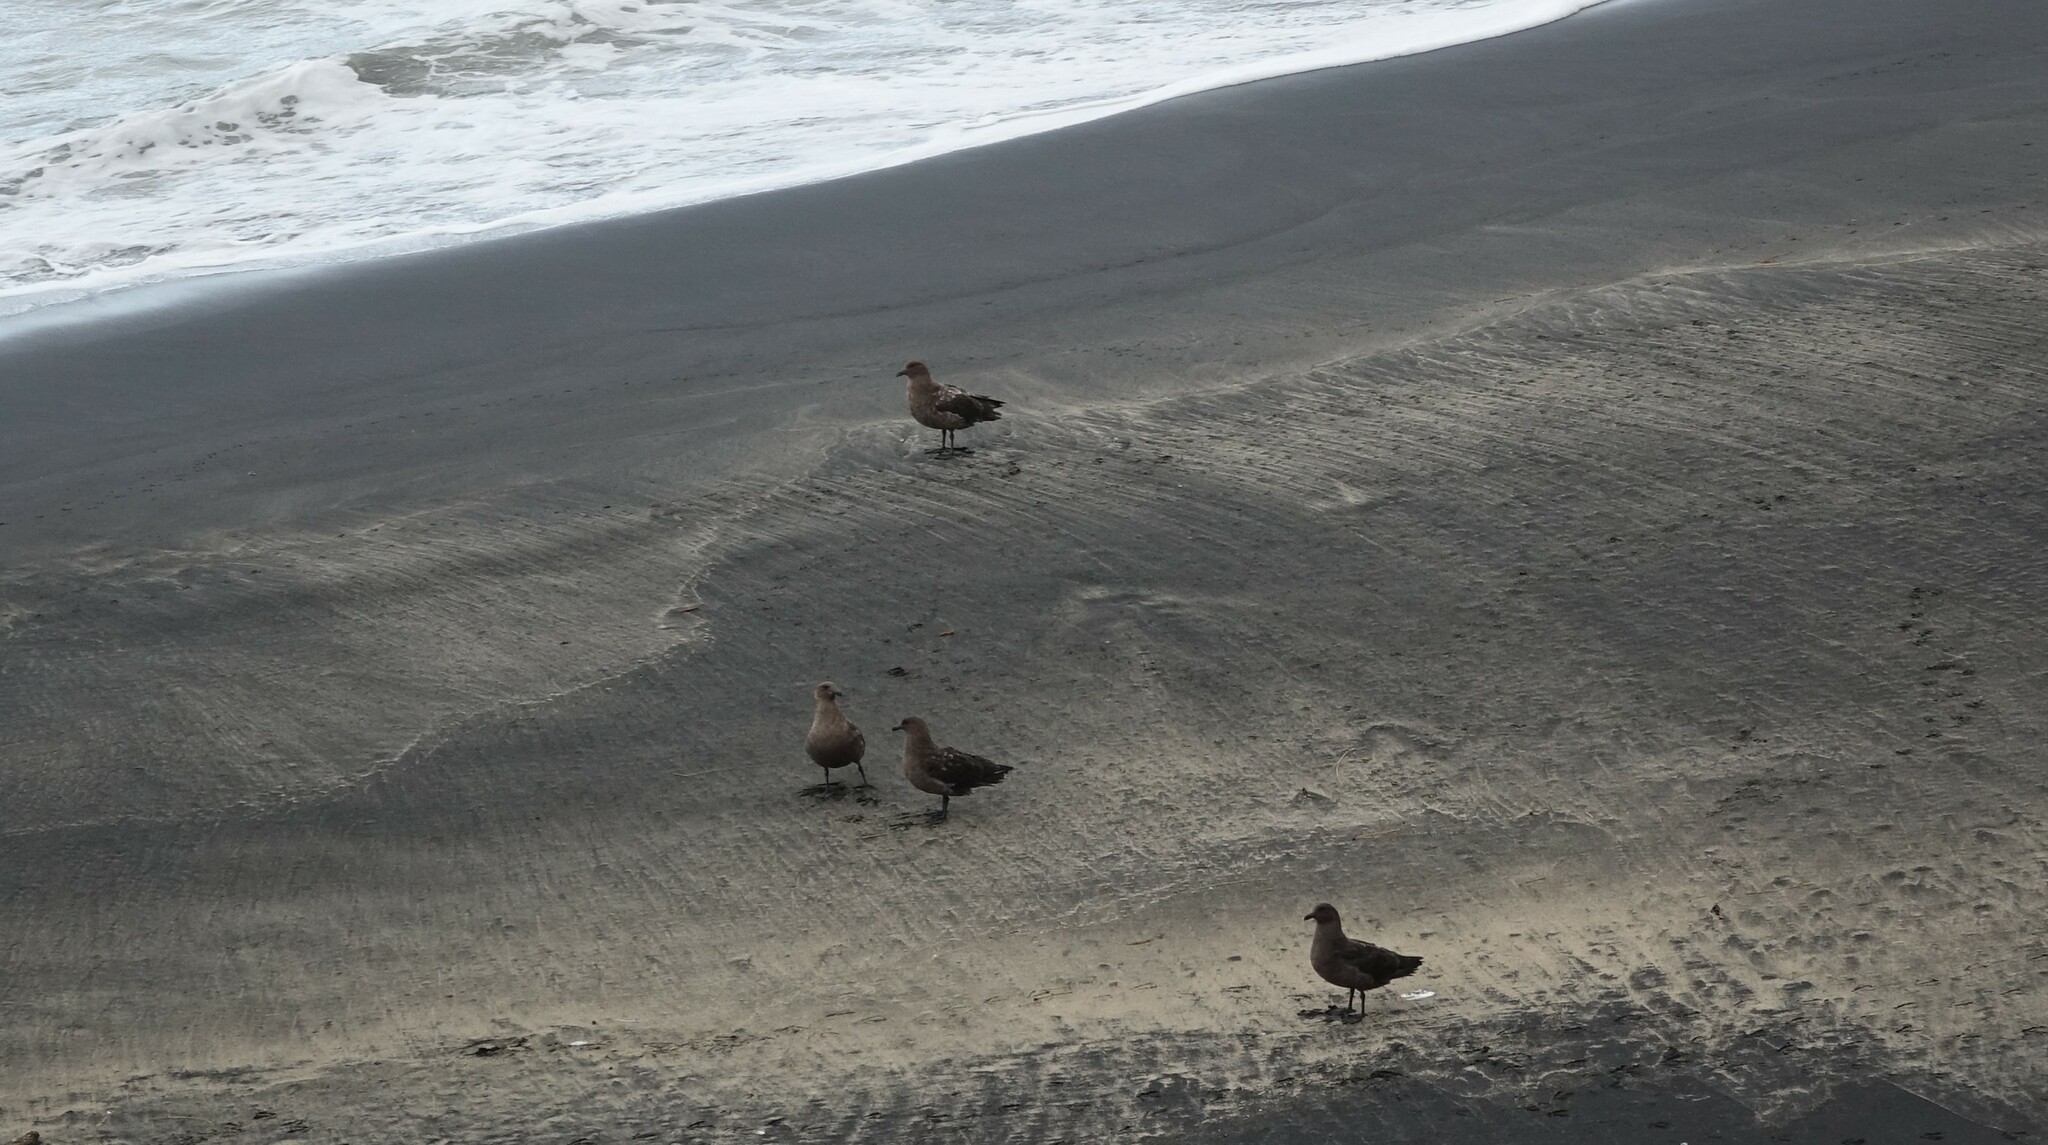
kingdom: Animalia
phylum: Chordata
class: Aves
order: Charadriiformes
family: Stercorariidae
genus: Stercorarius
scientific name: Stercorarius antarcticus
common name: Brown skua
